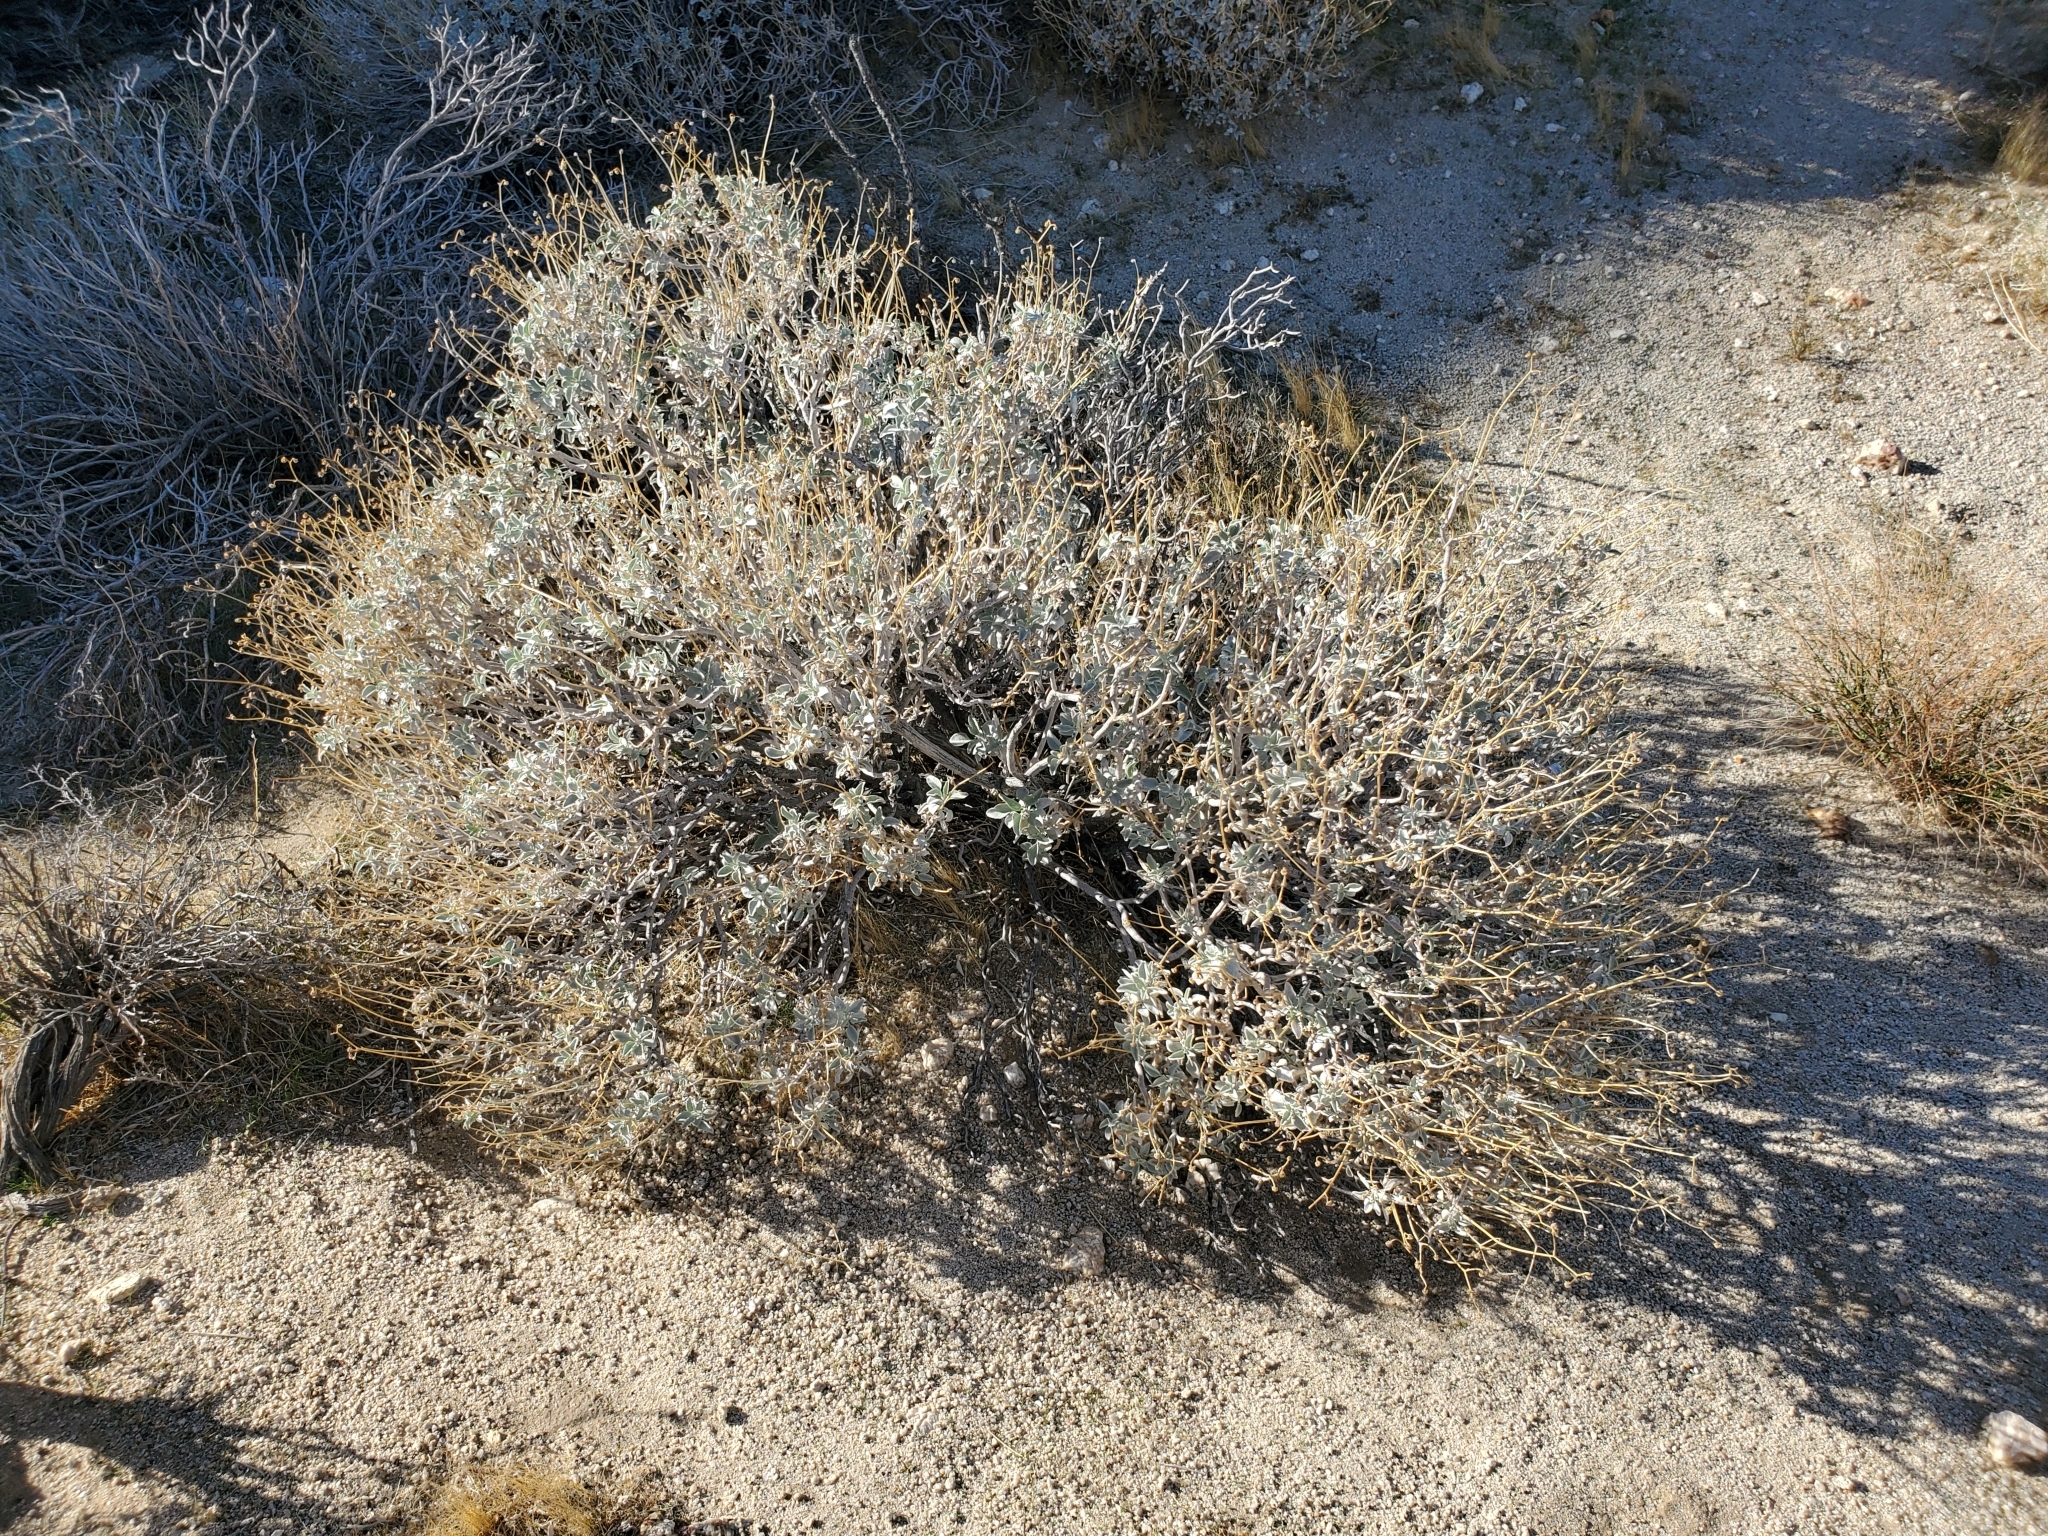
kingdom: Plantae
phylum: Tracheophyta
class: Magnoliopsida
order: Asterales
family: Asteraceae
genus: Encelia
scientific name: Encelia farinosa
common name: Brittlebush
